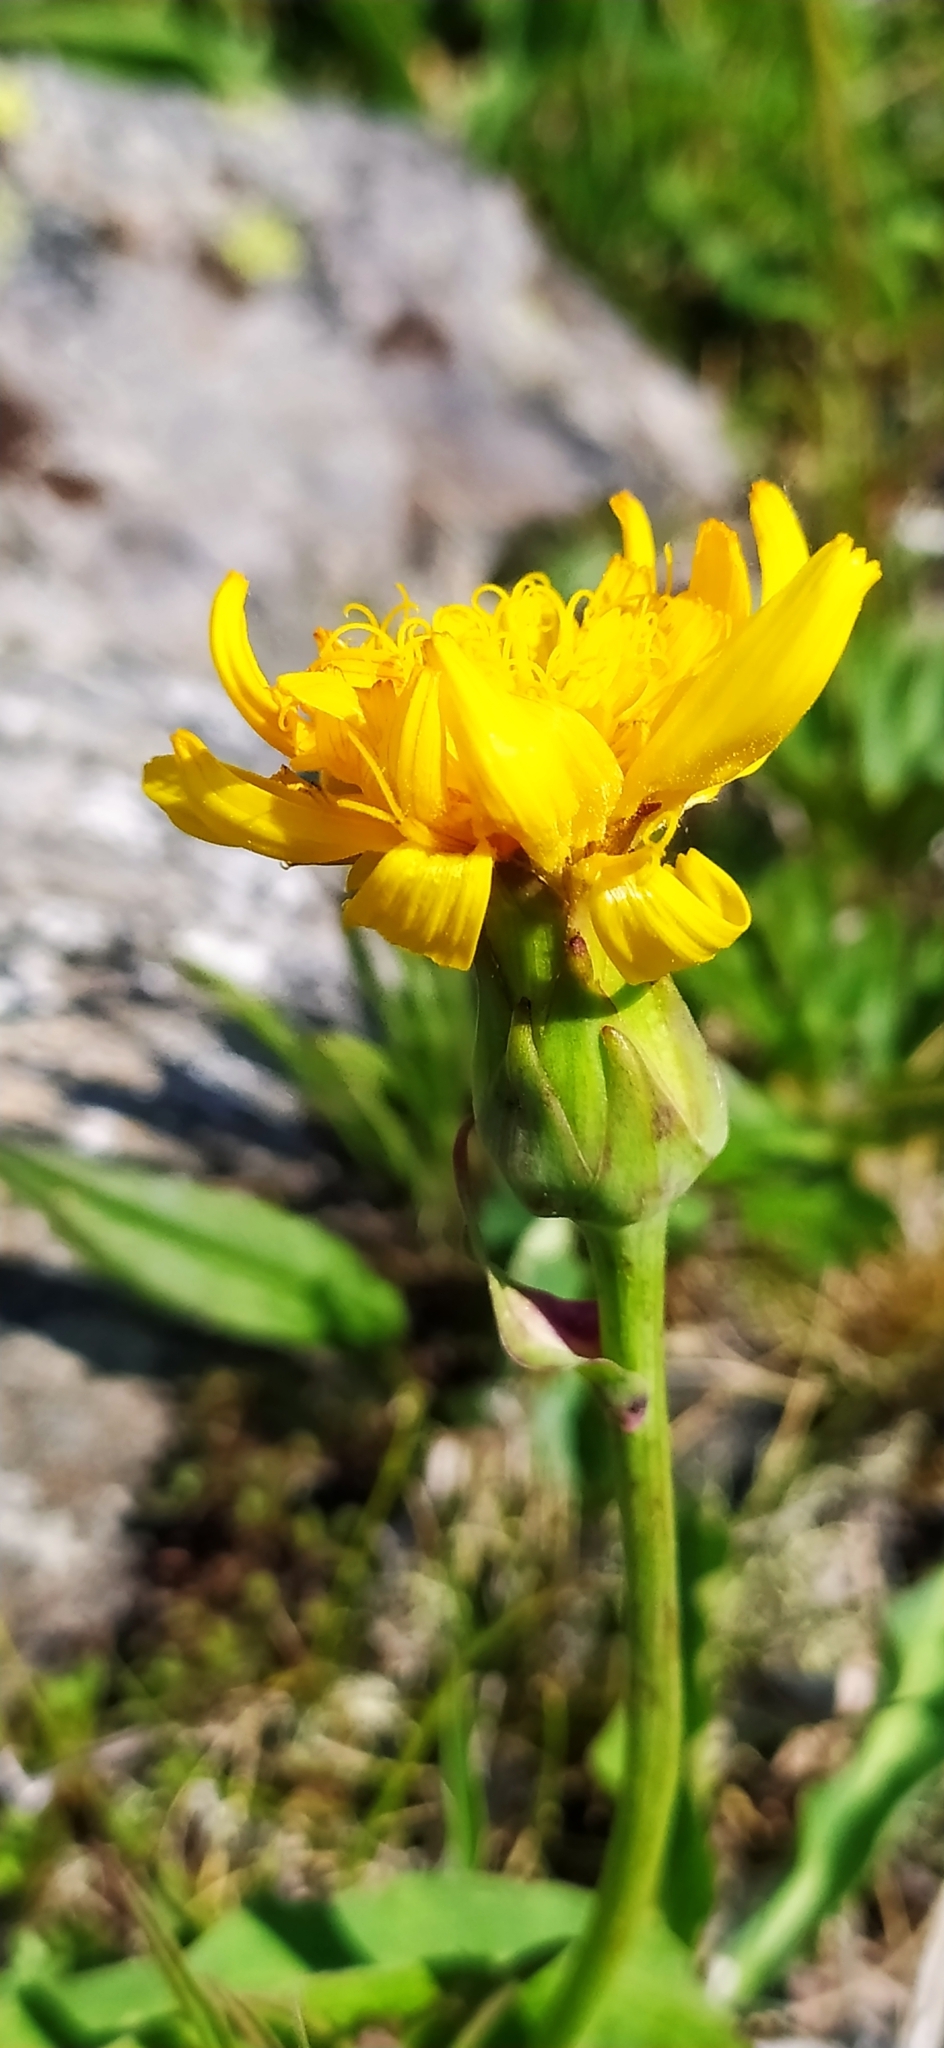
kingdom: Plantae
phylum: Tracheophyta
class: Magnoliopsida
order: Asterales
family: Asteraceae
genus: Scorzonera
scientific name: Scorzonera glabra
